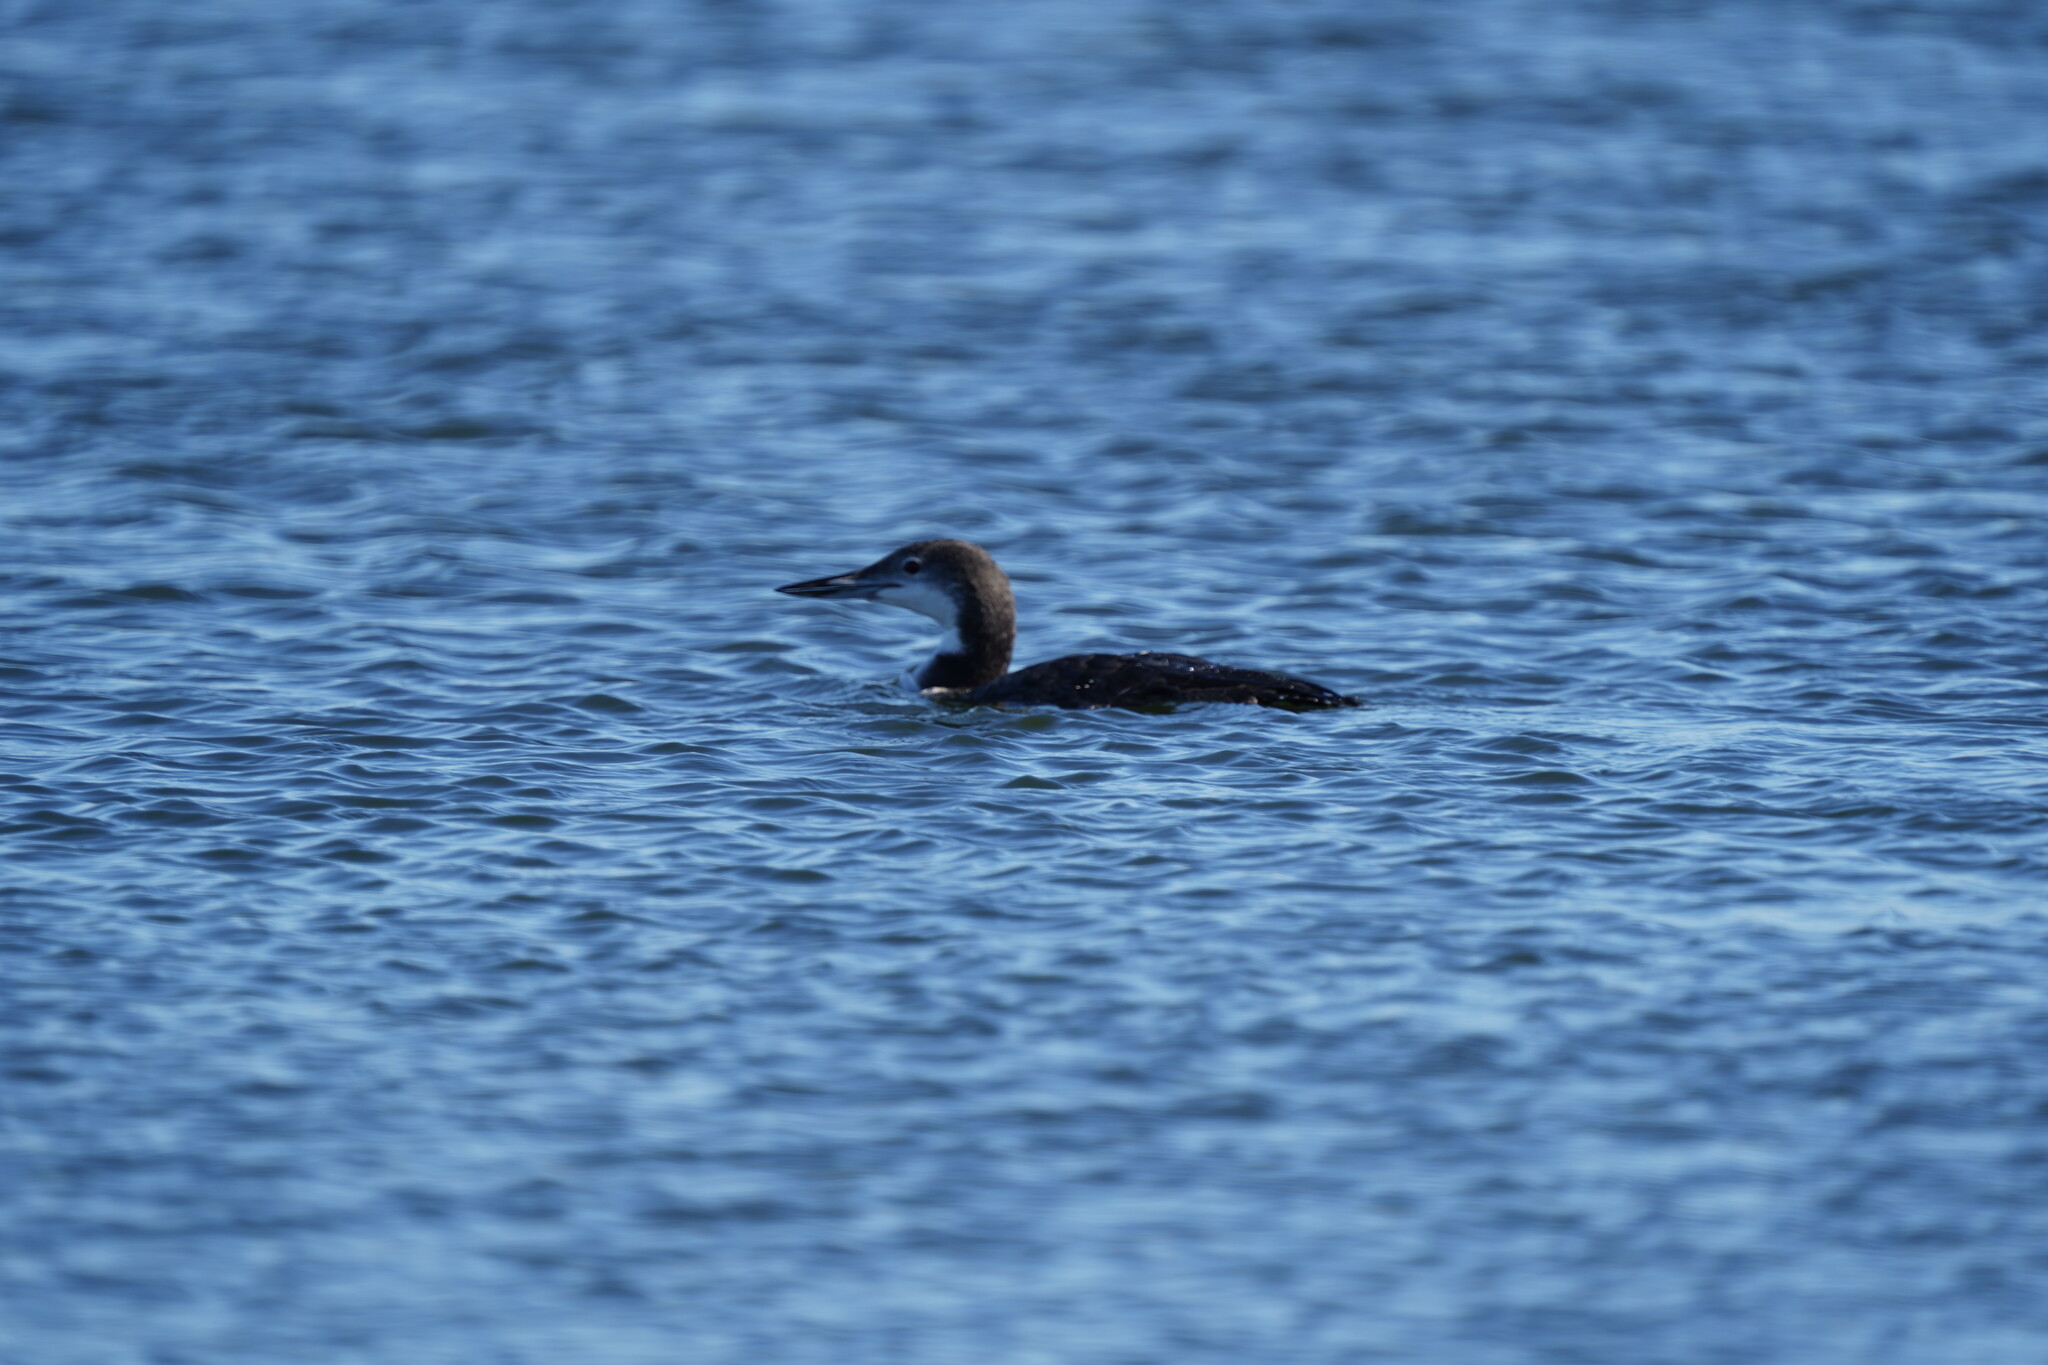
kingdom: Animalia
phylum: Chordata
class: Aves
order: Gaviiformes
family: Gaviidae
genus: Gavia
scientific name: Gavia immer
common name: Common loon
